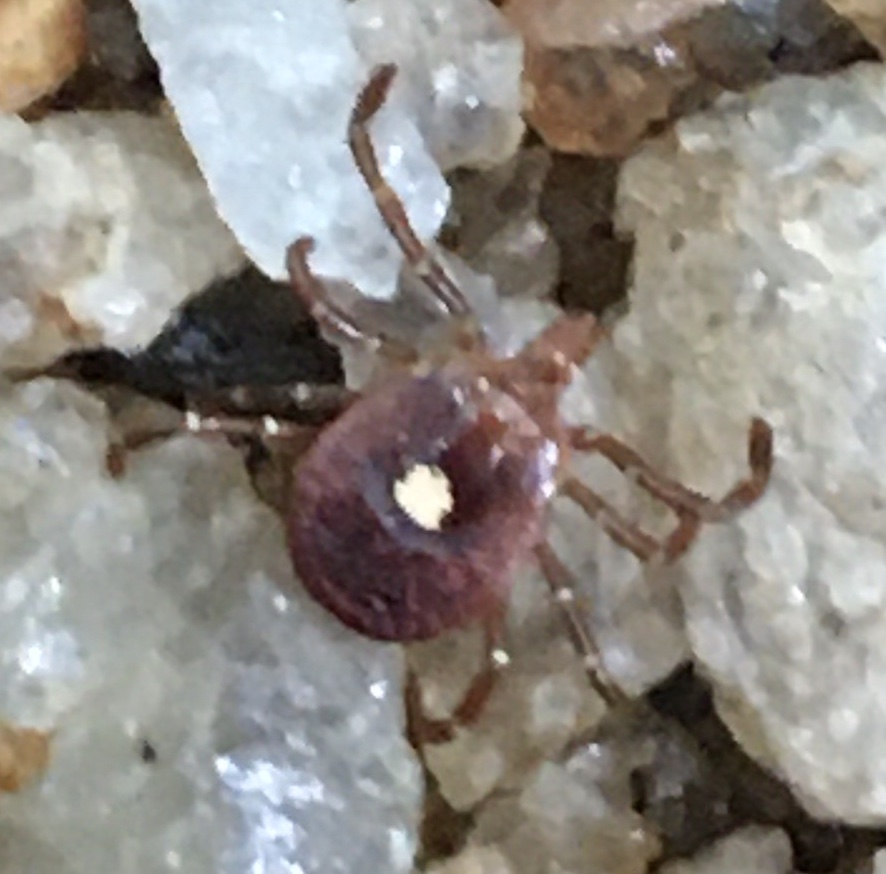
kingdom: Animalia
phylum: Arthropoda
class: Arachnida
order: Ixodida
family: Ixodidae
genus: Amblyomma
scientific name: Amblyomma americanum
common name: Lone star tick
